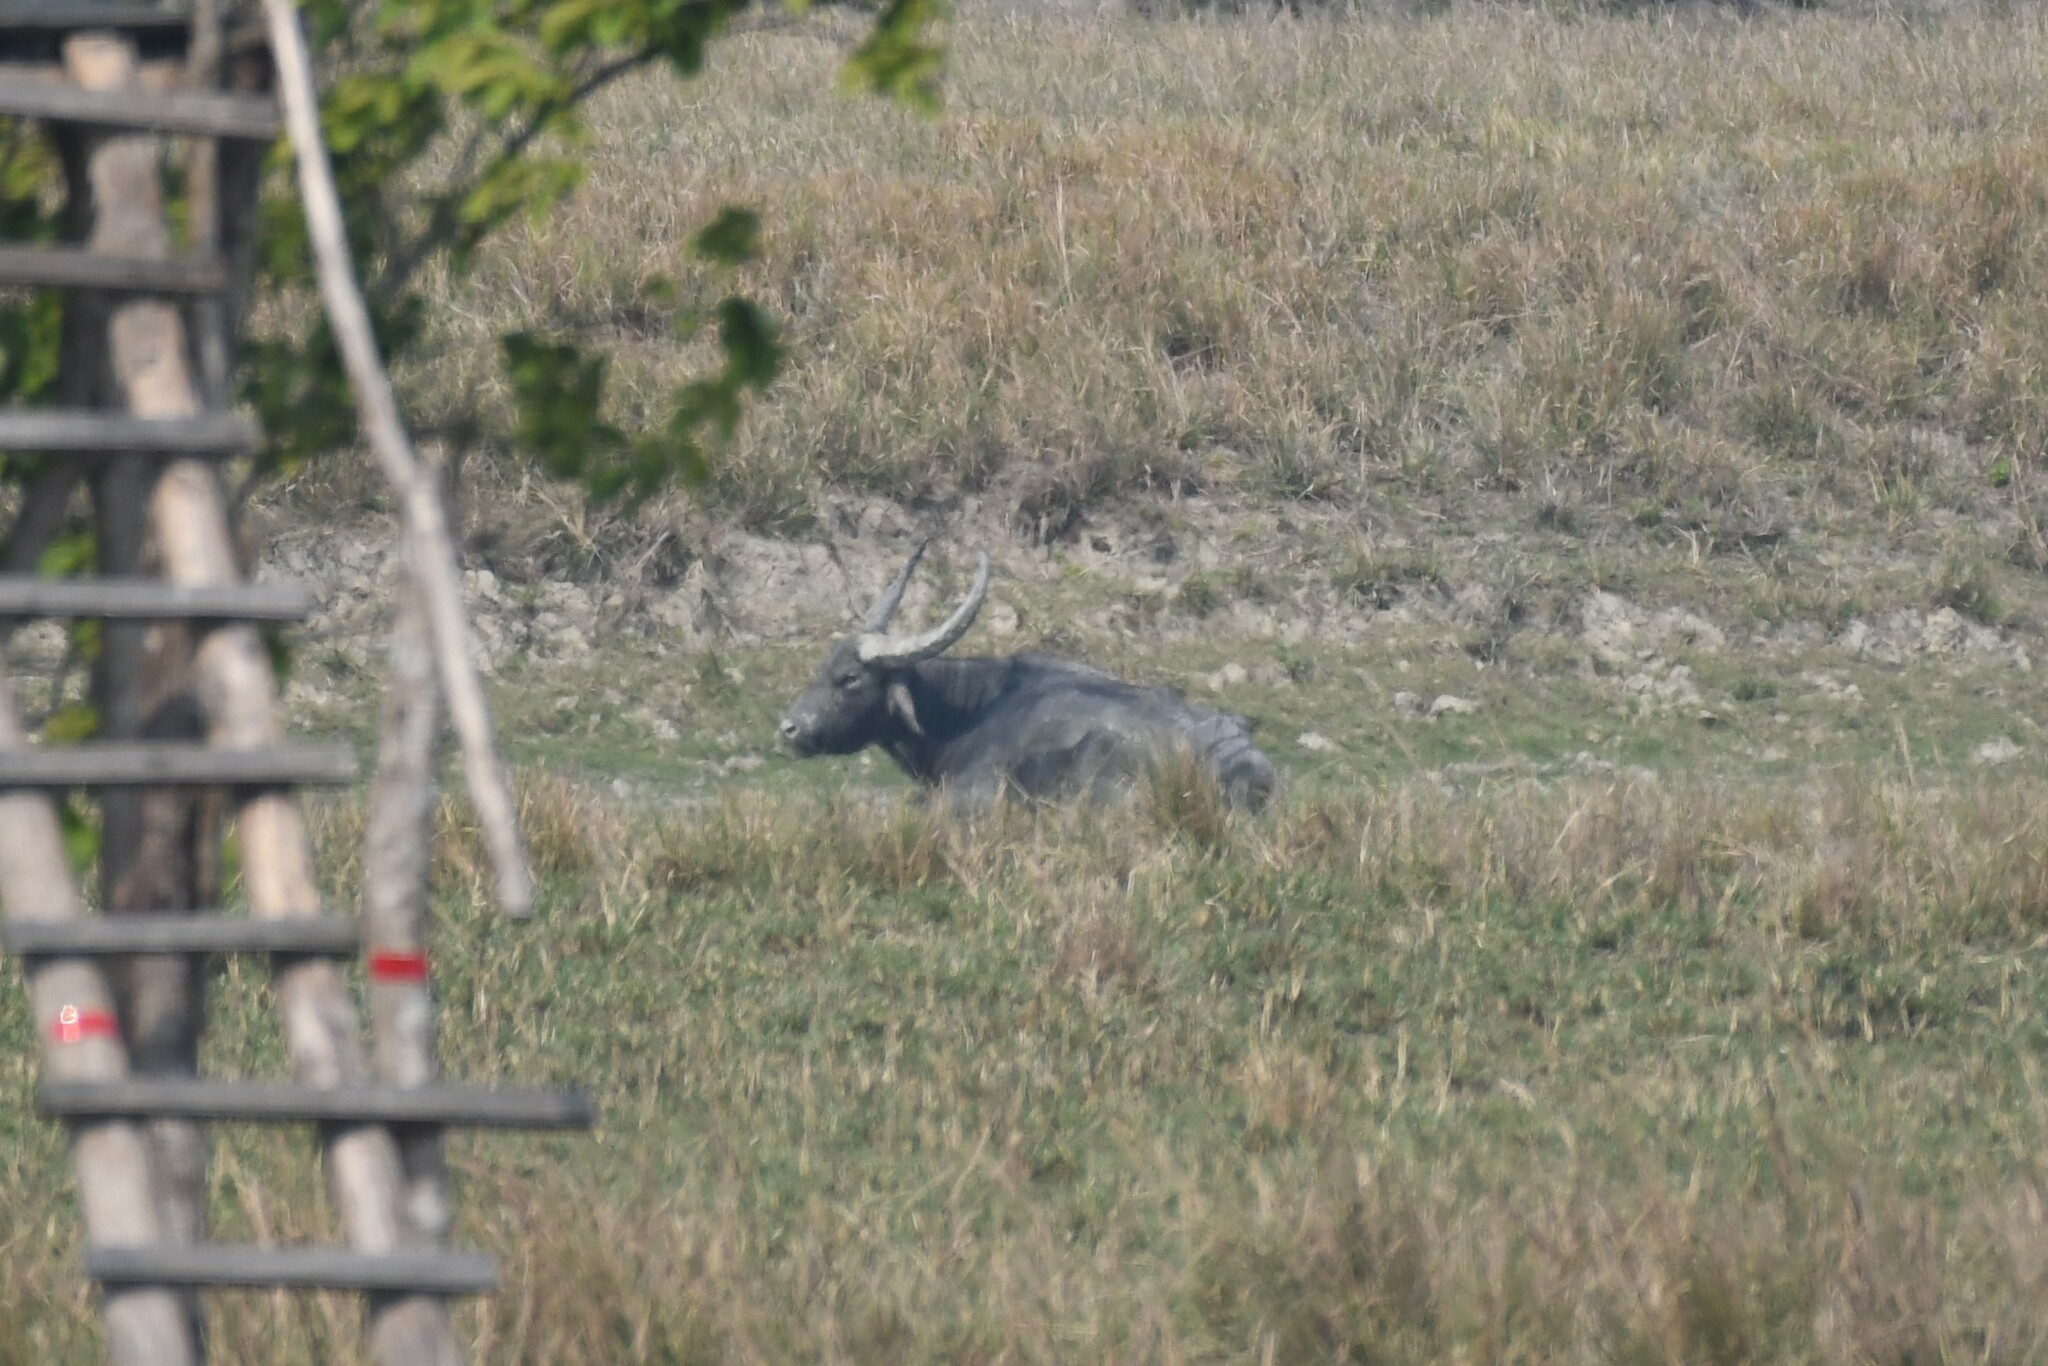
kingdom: Animalia
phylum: Chordata
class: Mammalia
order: Artiodactyla
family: Bovidae
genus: Bubalus
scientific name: Bubalus bubalis
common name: Water buffalo
